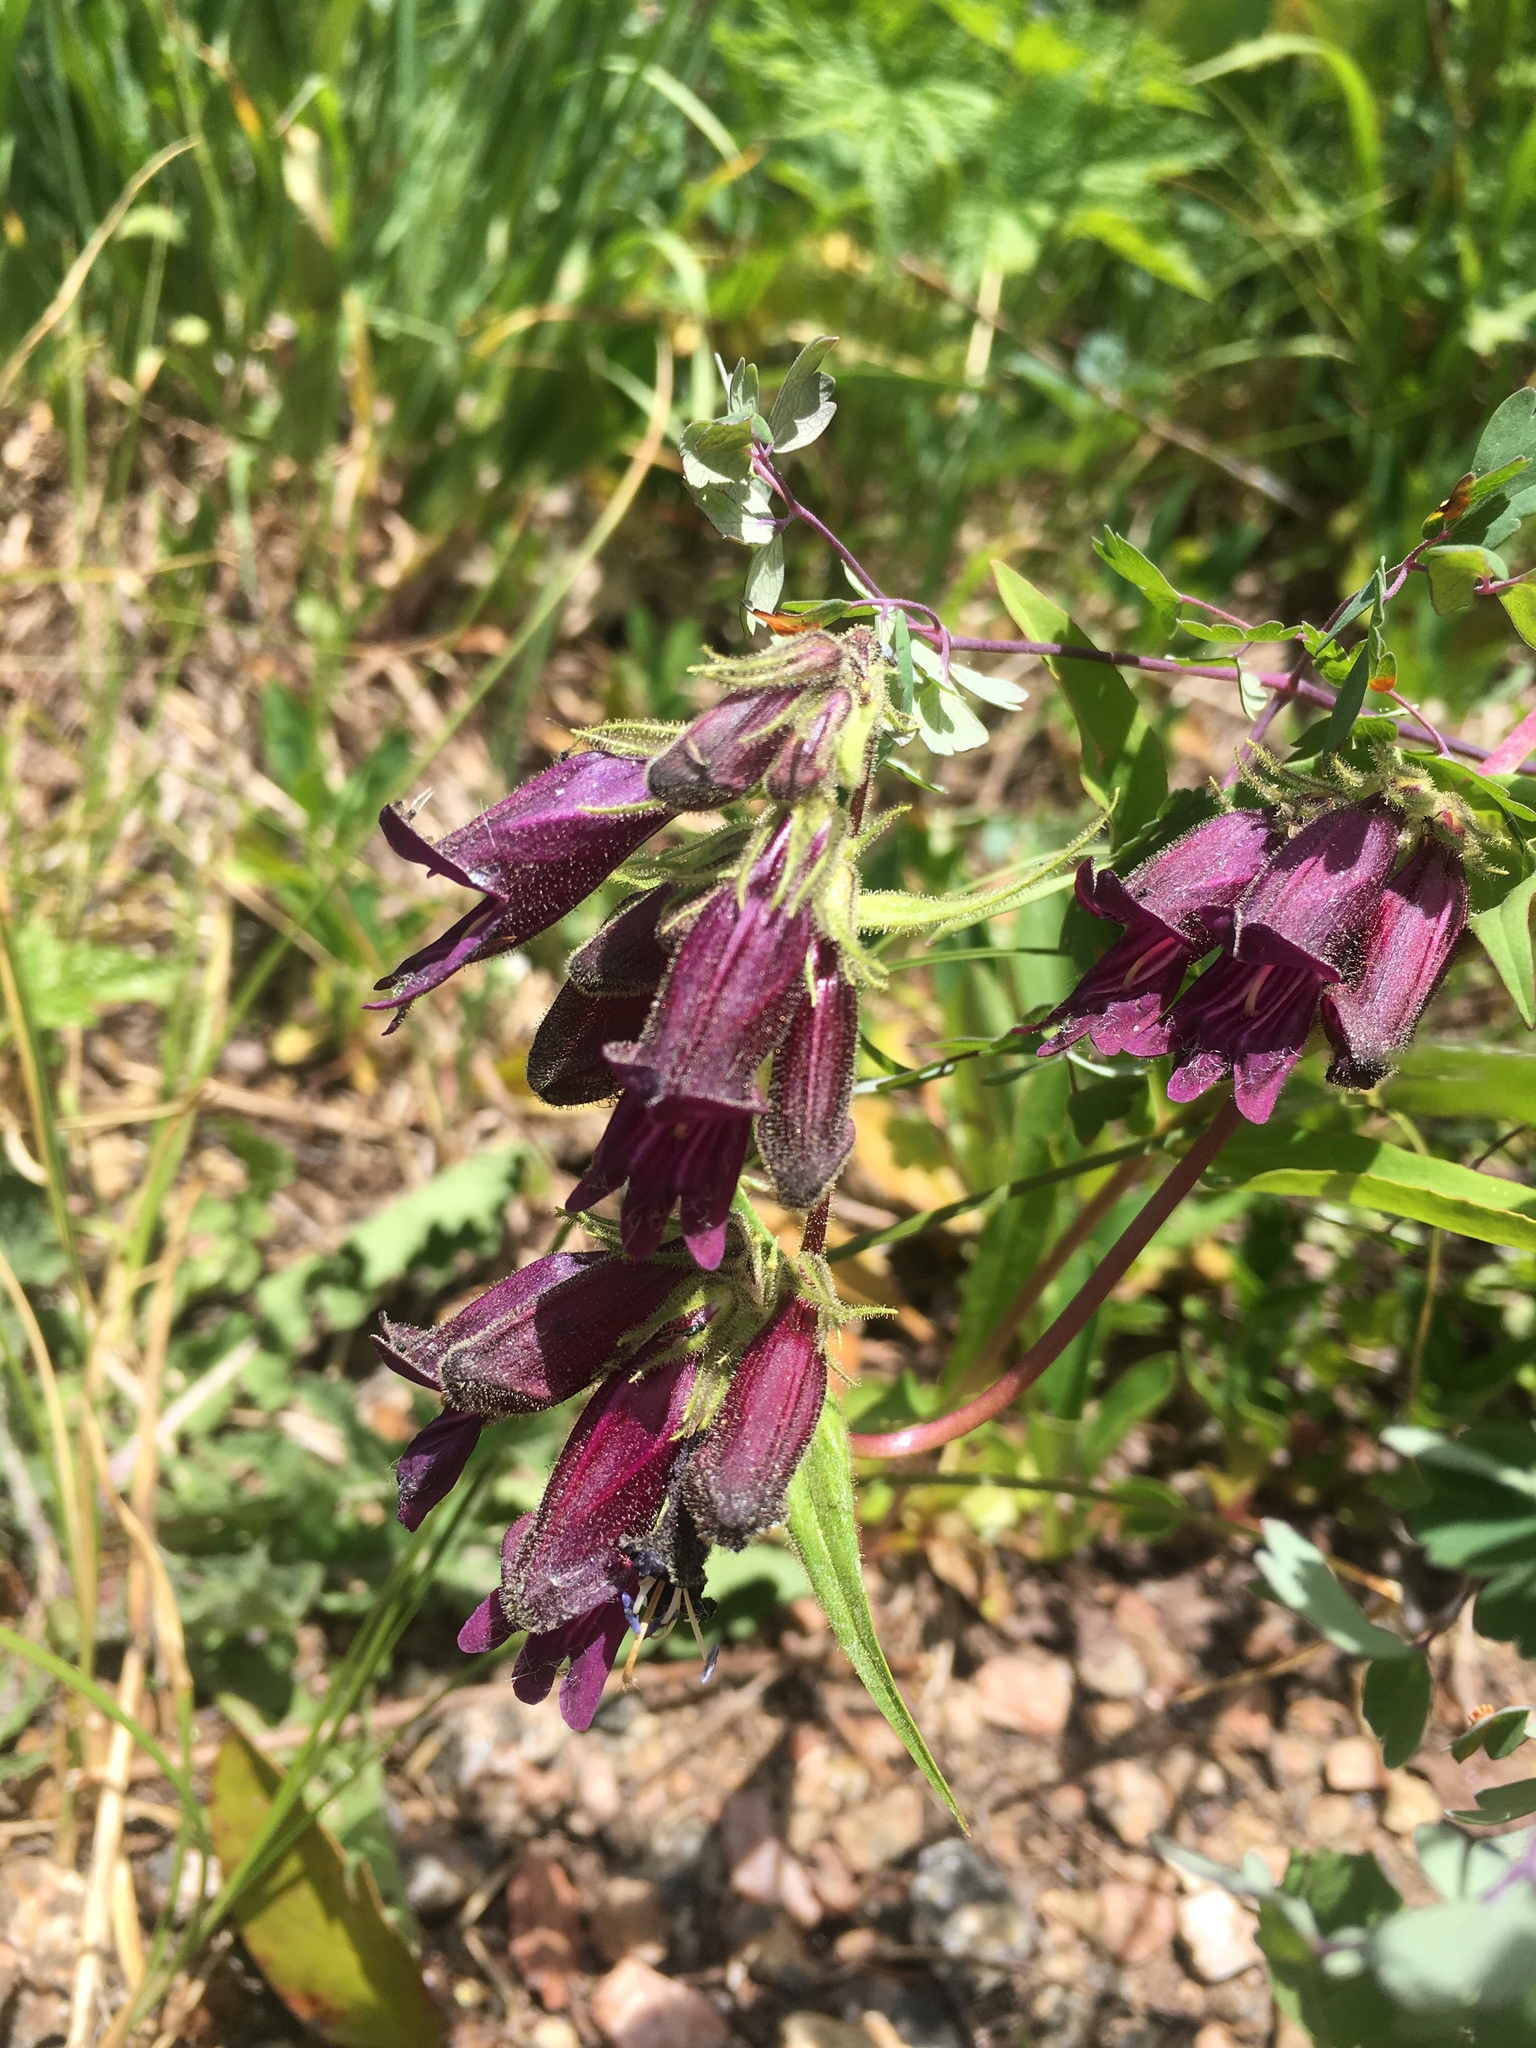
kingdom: Plantae
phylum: Tracheophyta
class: Magnoliopsida
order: Lamiales
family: Plantaginaceae
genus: Penstemon
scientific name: Penstemon whippleanus
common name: Whipple's penstemon
